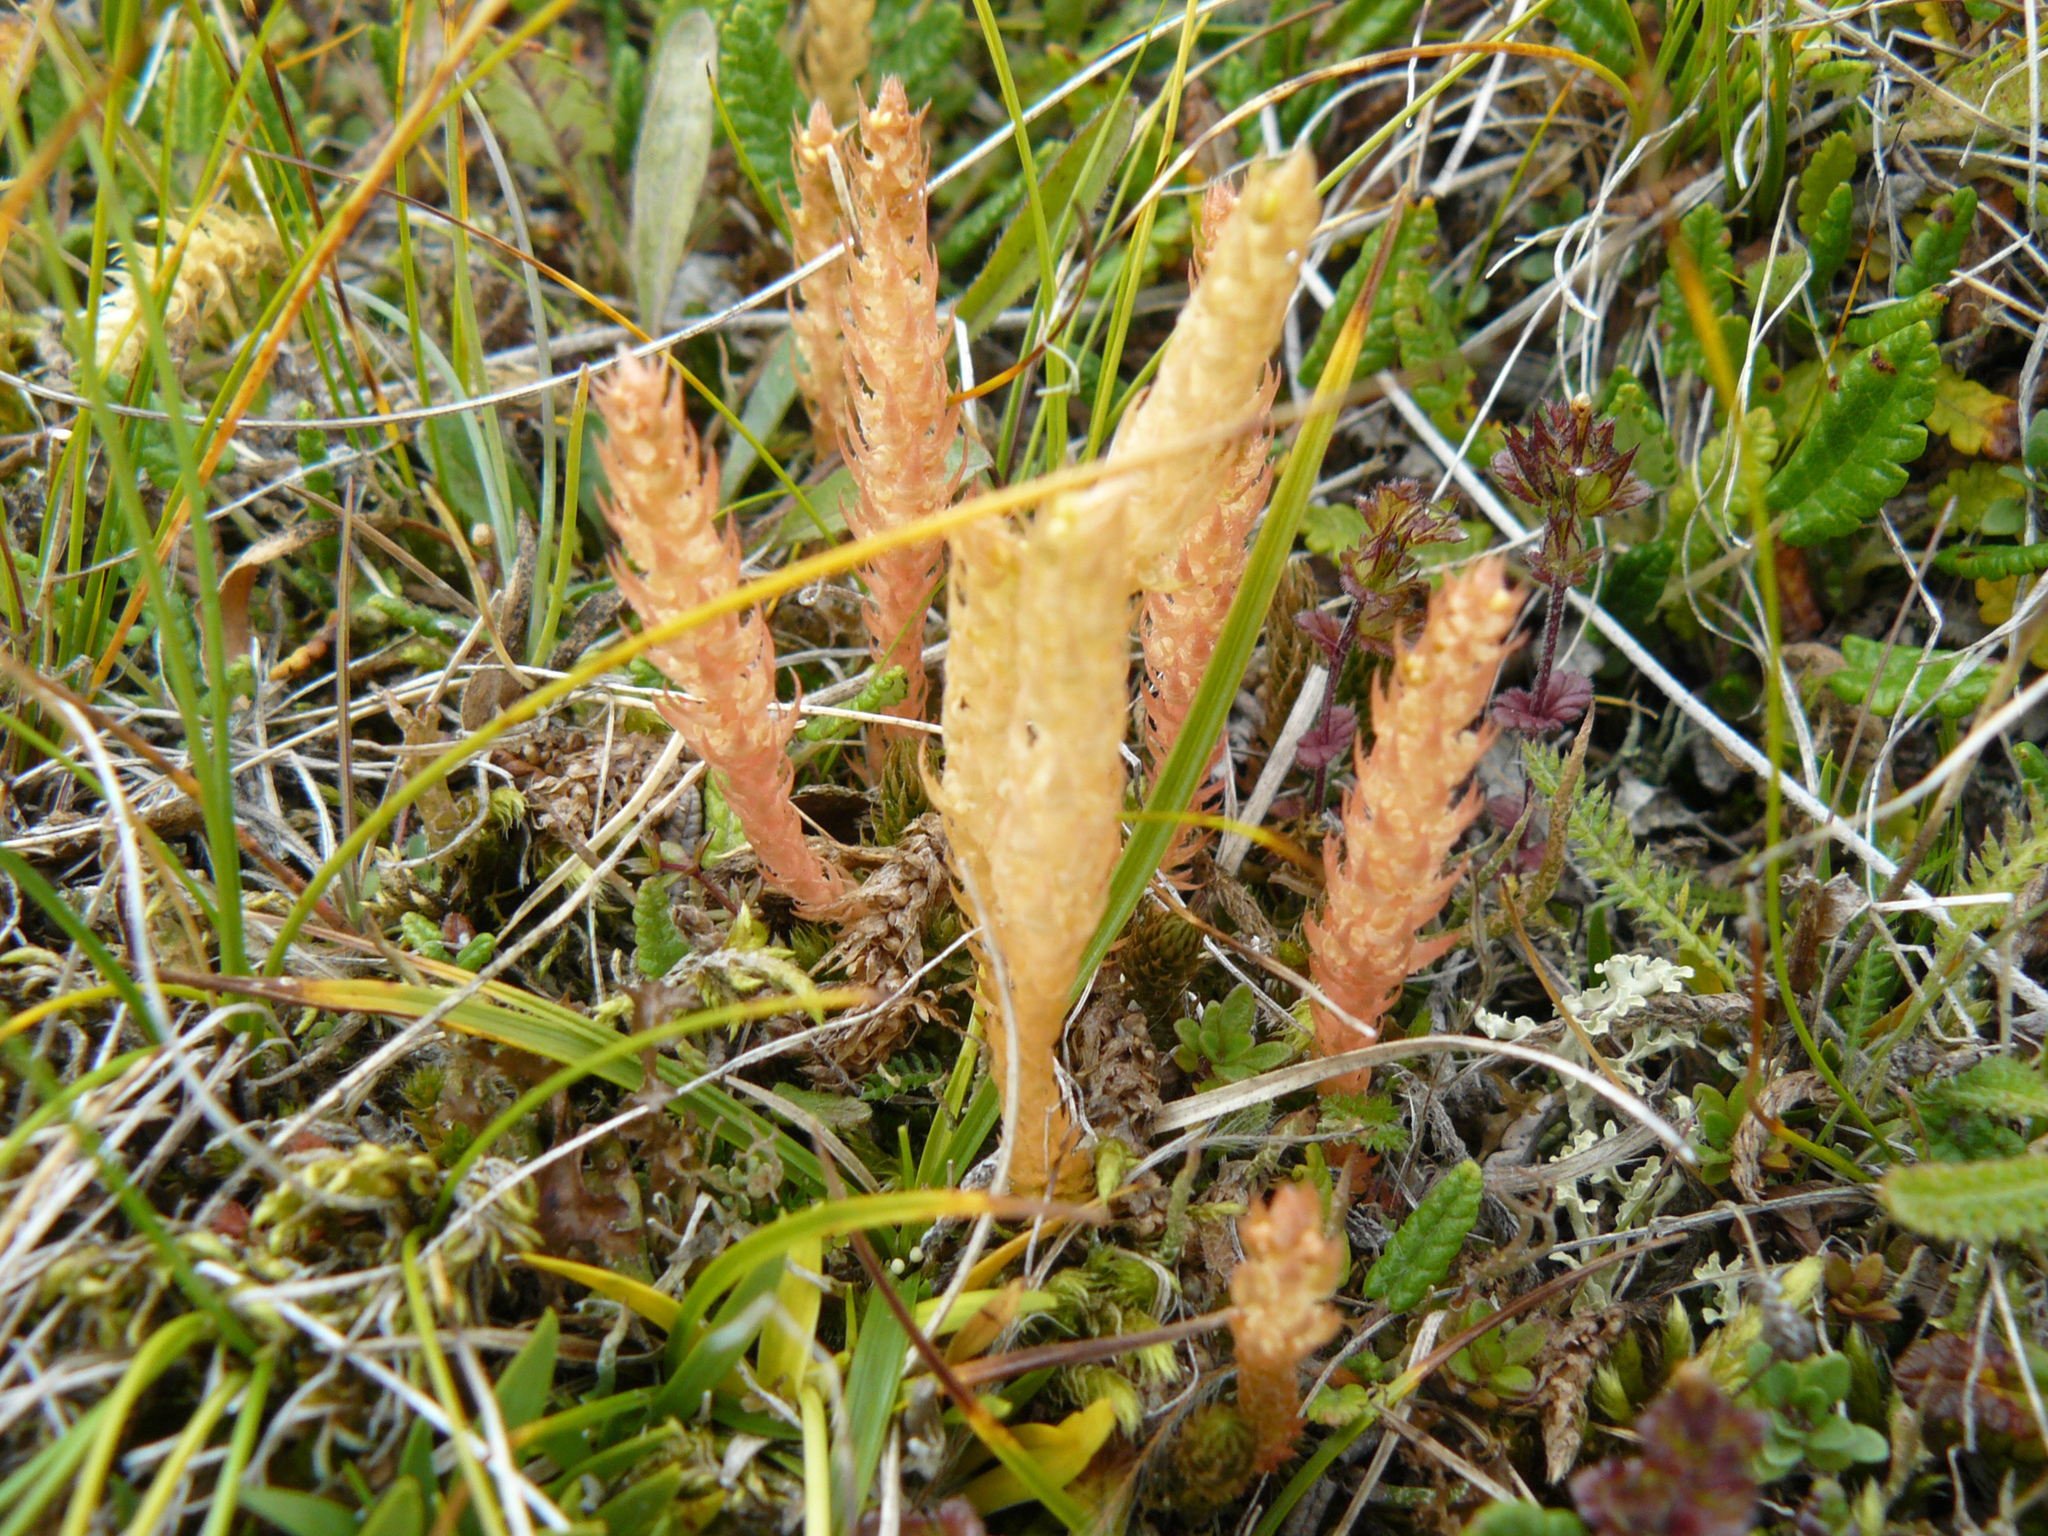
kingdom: Plantae
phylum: Tracheophyta
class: Lycopodiopsida
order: Selaginellales
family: Selaginellaceae
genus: Selaginella
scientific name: Selaginella selaginoides
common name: Prickly mountain-moss
